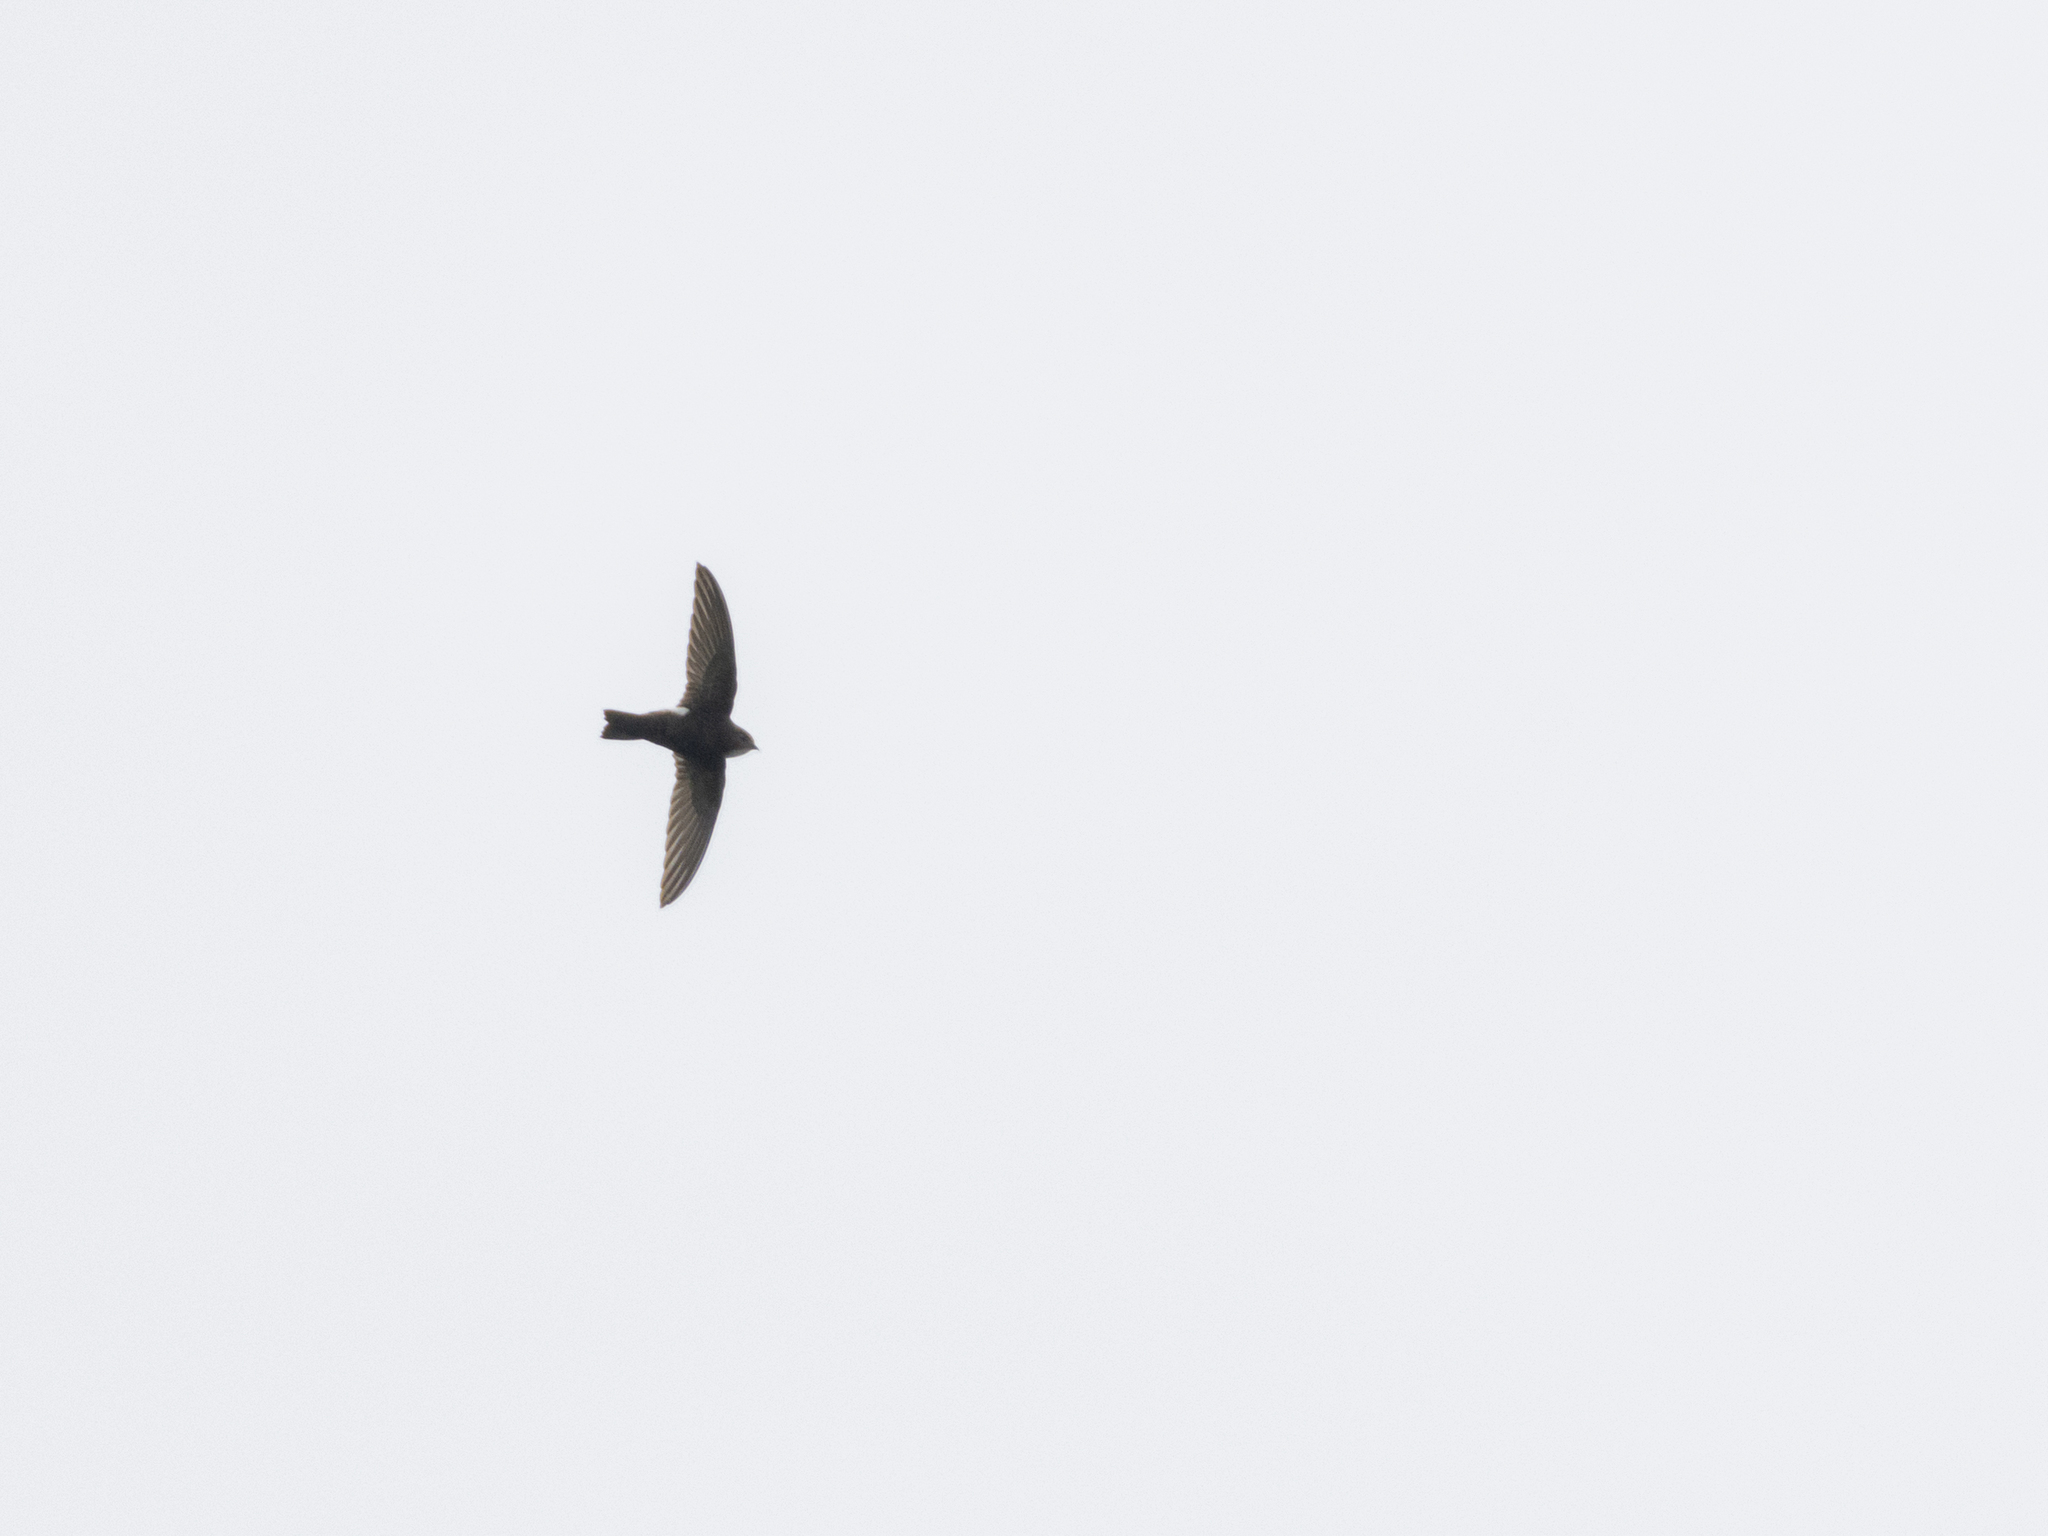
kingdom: Animalia
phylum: Chordata
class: Aves
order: Apodiformes
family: Apodidae
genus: Apus
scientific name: Apus nipalensis
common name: House swift
